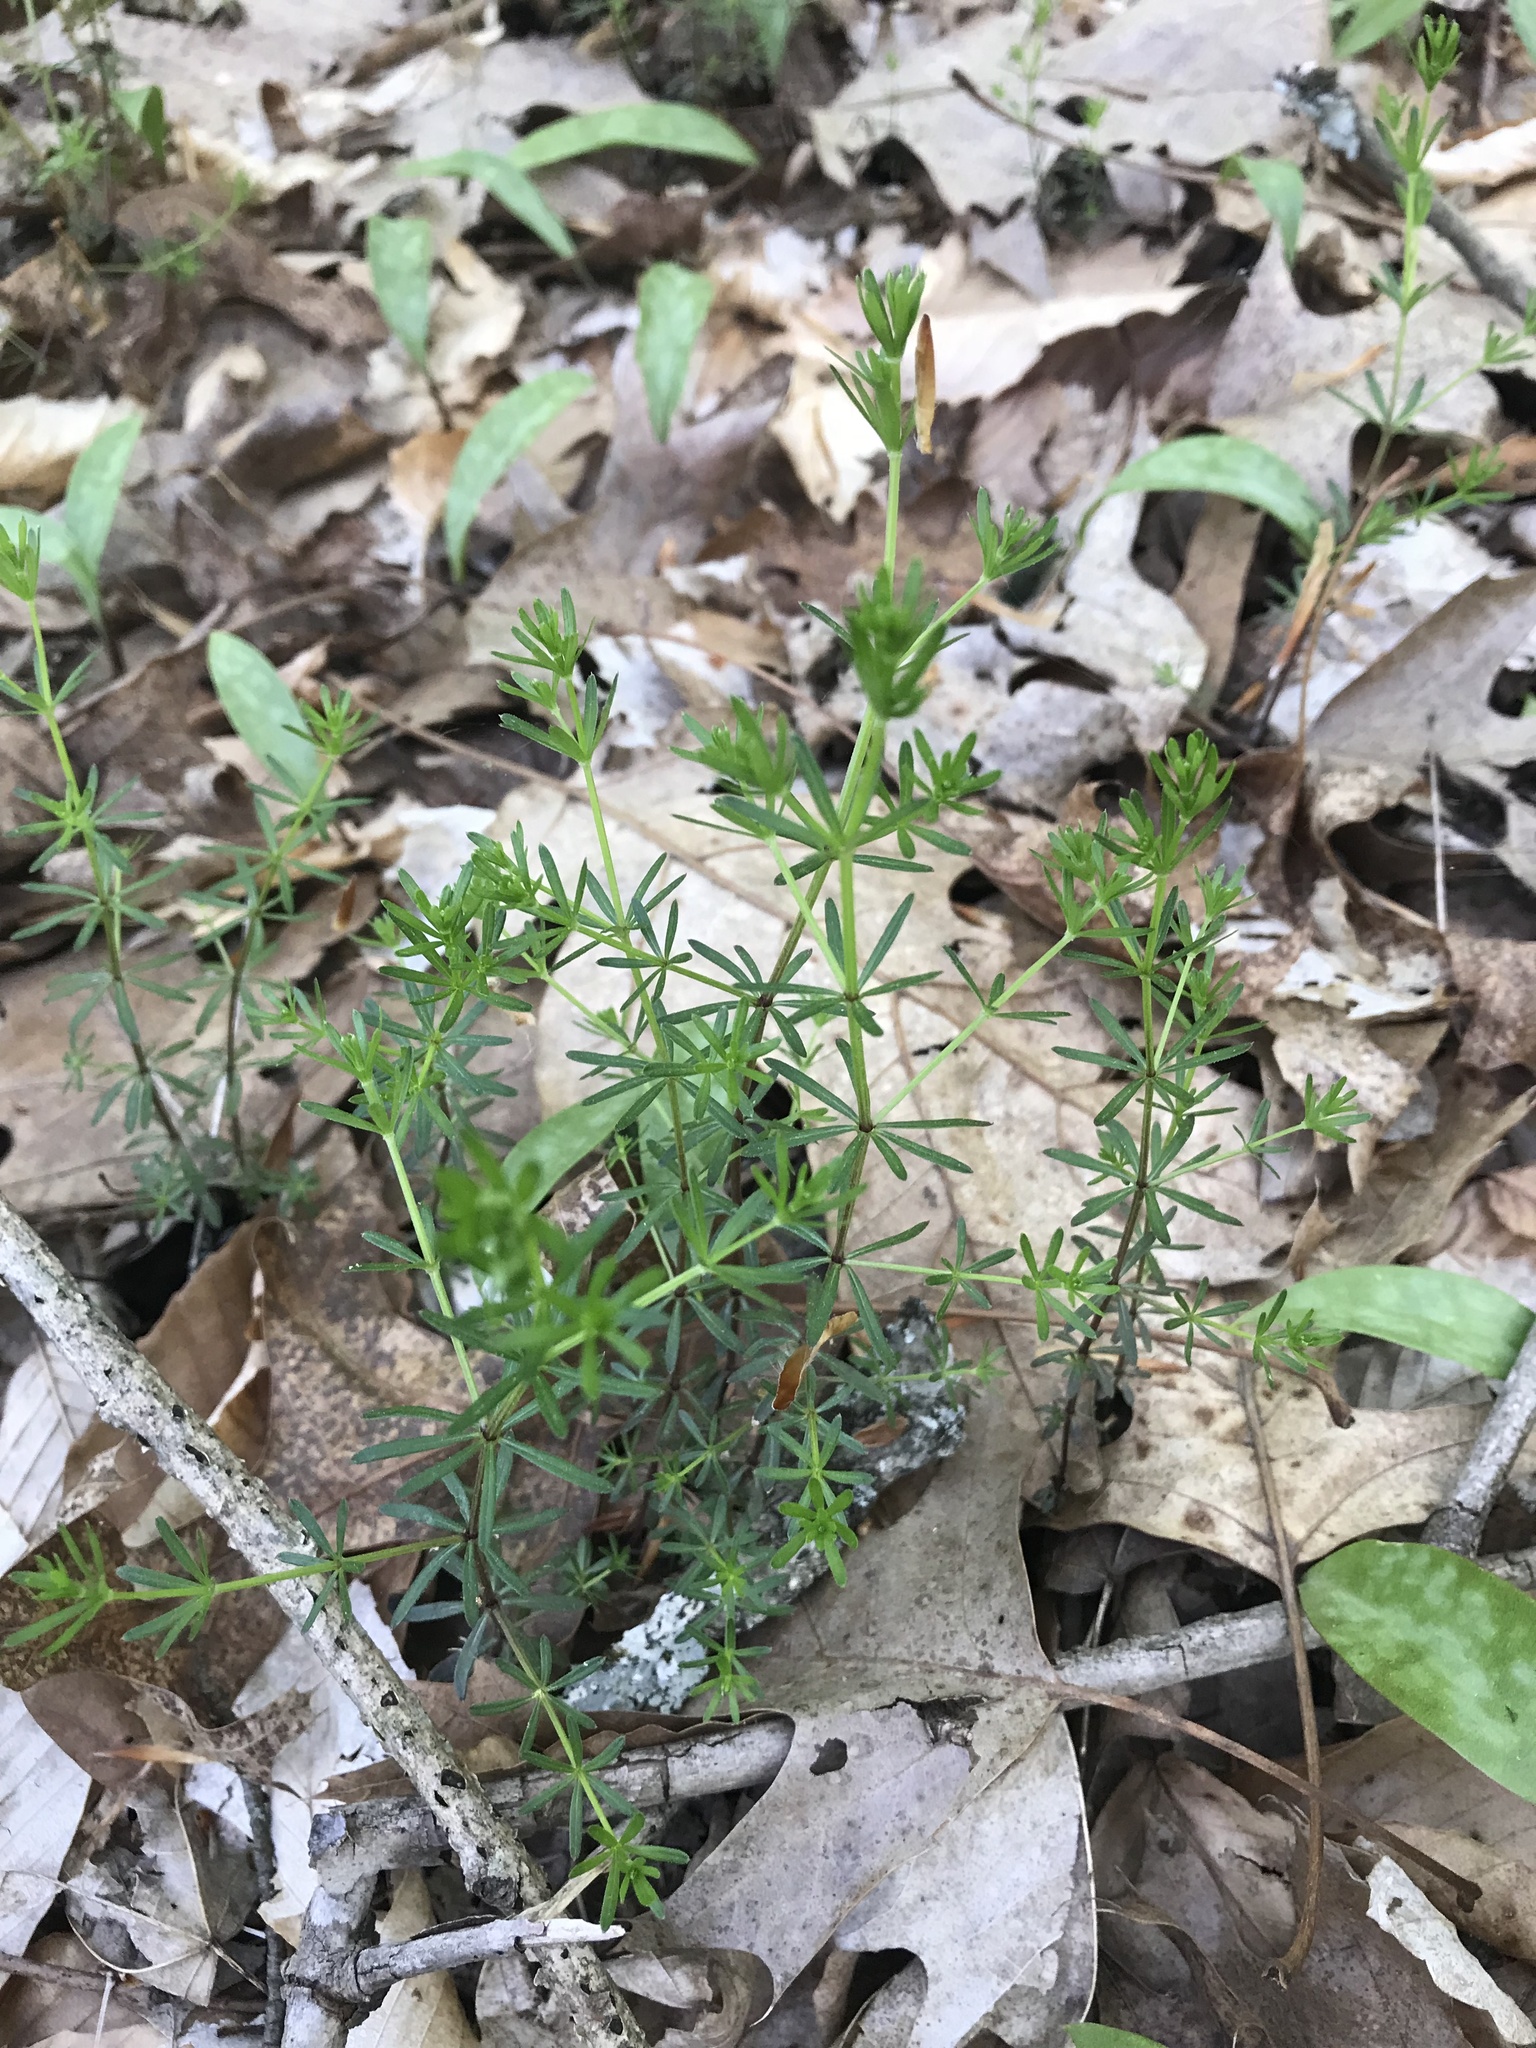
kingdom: Plantae
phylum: Tracheophyta
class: Magnoliopsida
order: Gentianales
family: Rubiaceae
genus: Galium
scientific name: Galium aparine
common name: Cleavers
